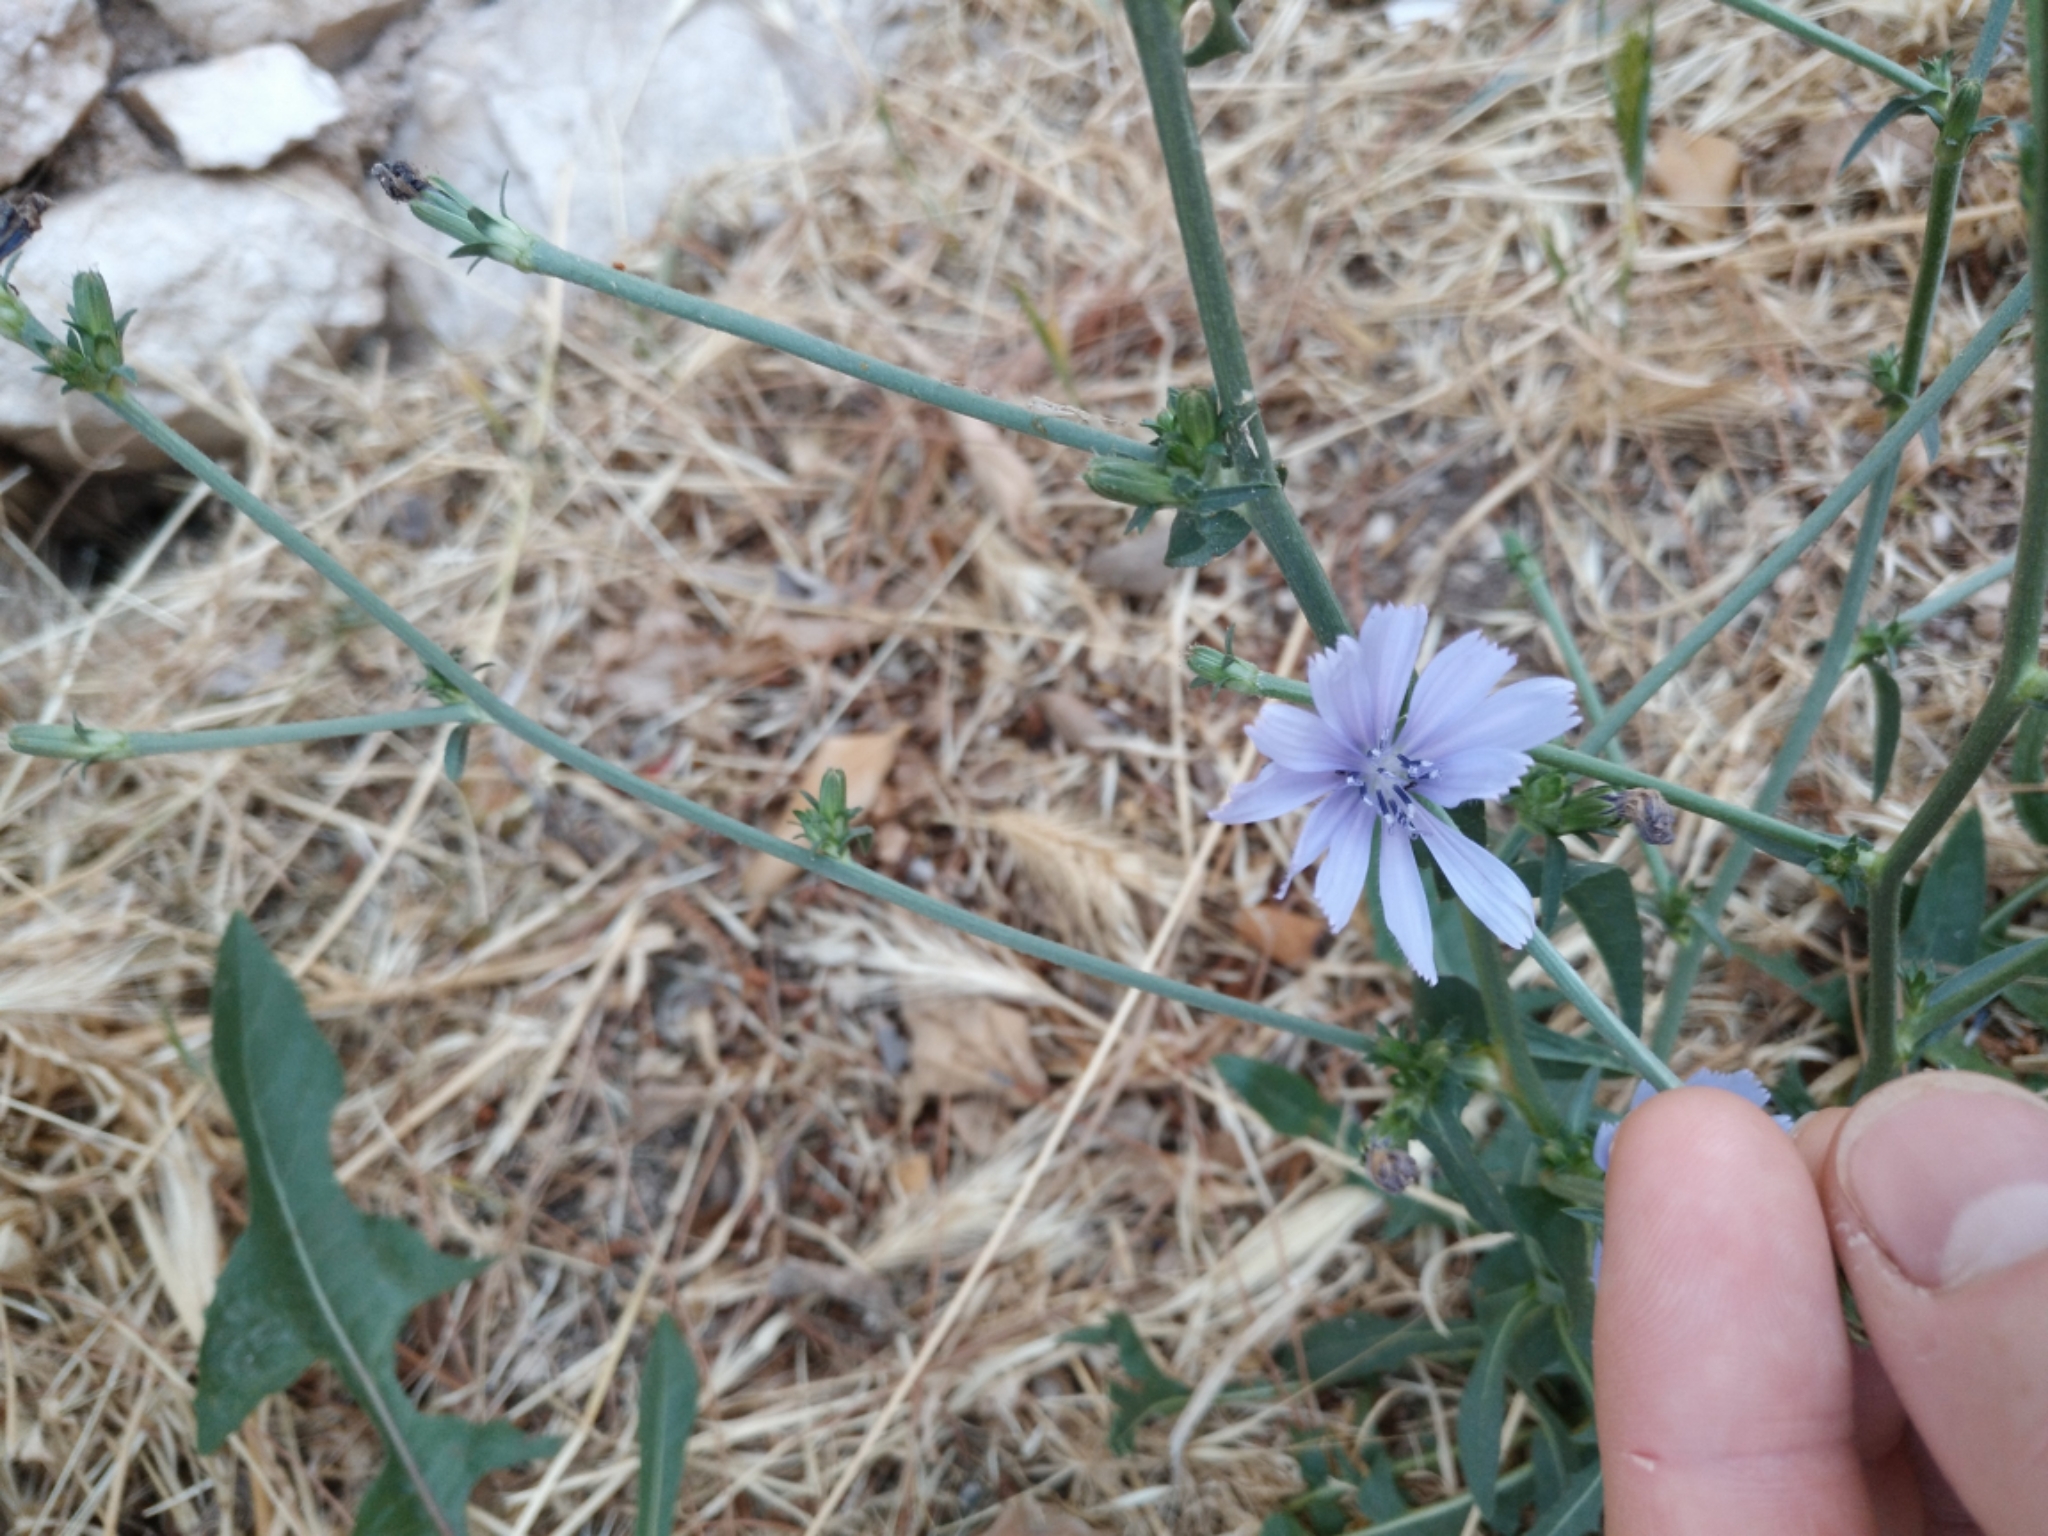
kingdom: Plantae
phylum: Tracheophyta
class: Magnoliopsida
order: Asterales
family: Asteraceae
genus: Cichorium
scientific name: Cichorium intybus
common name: Chicory
